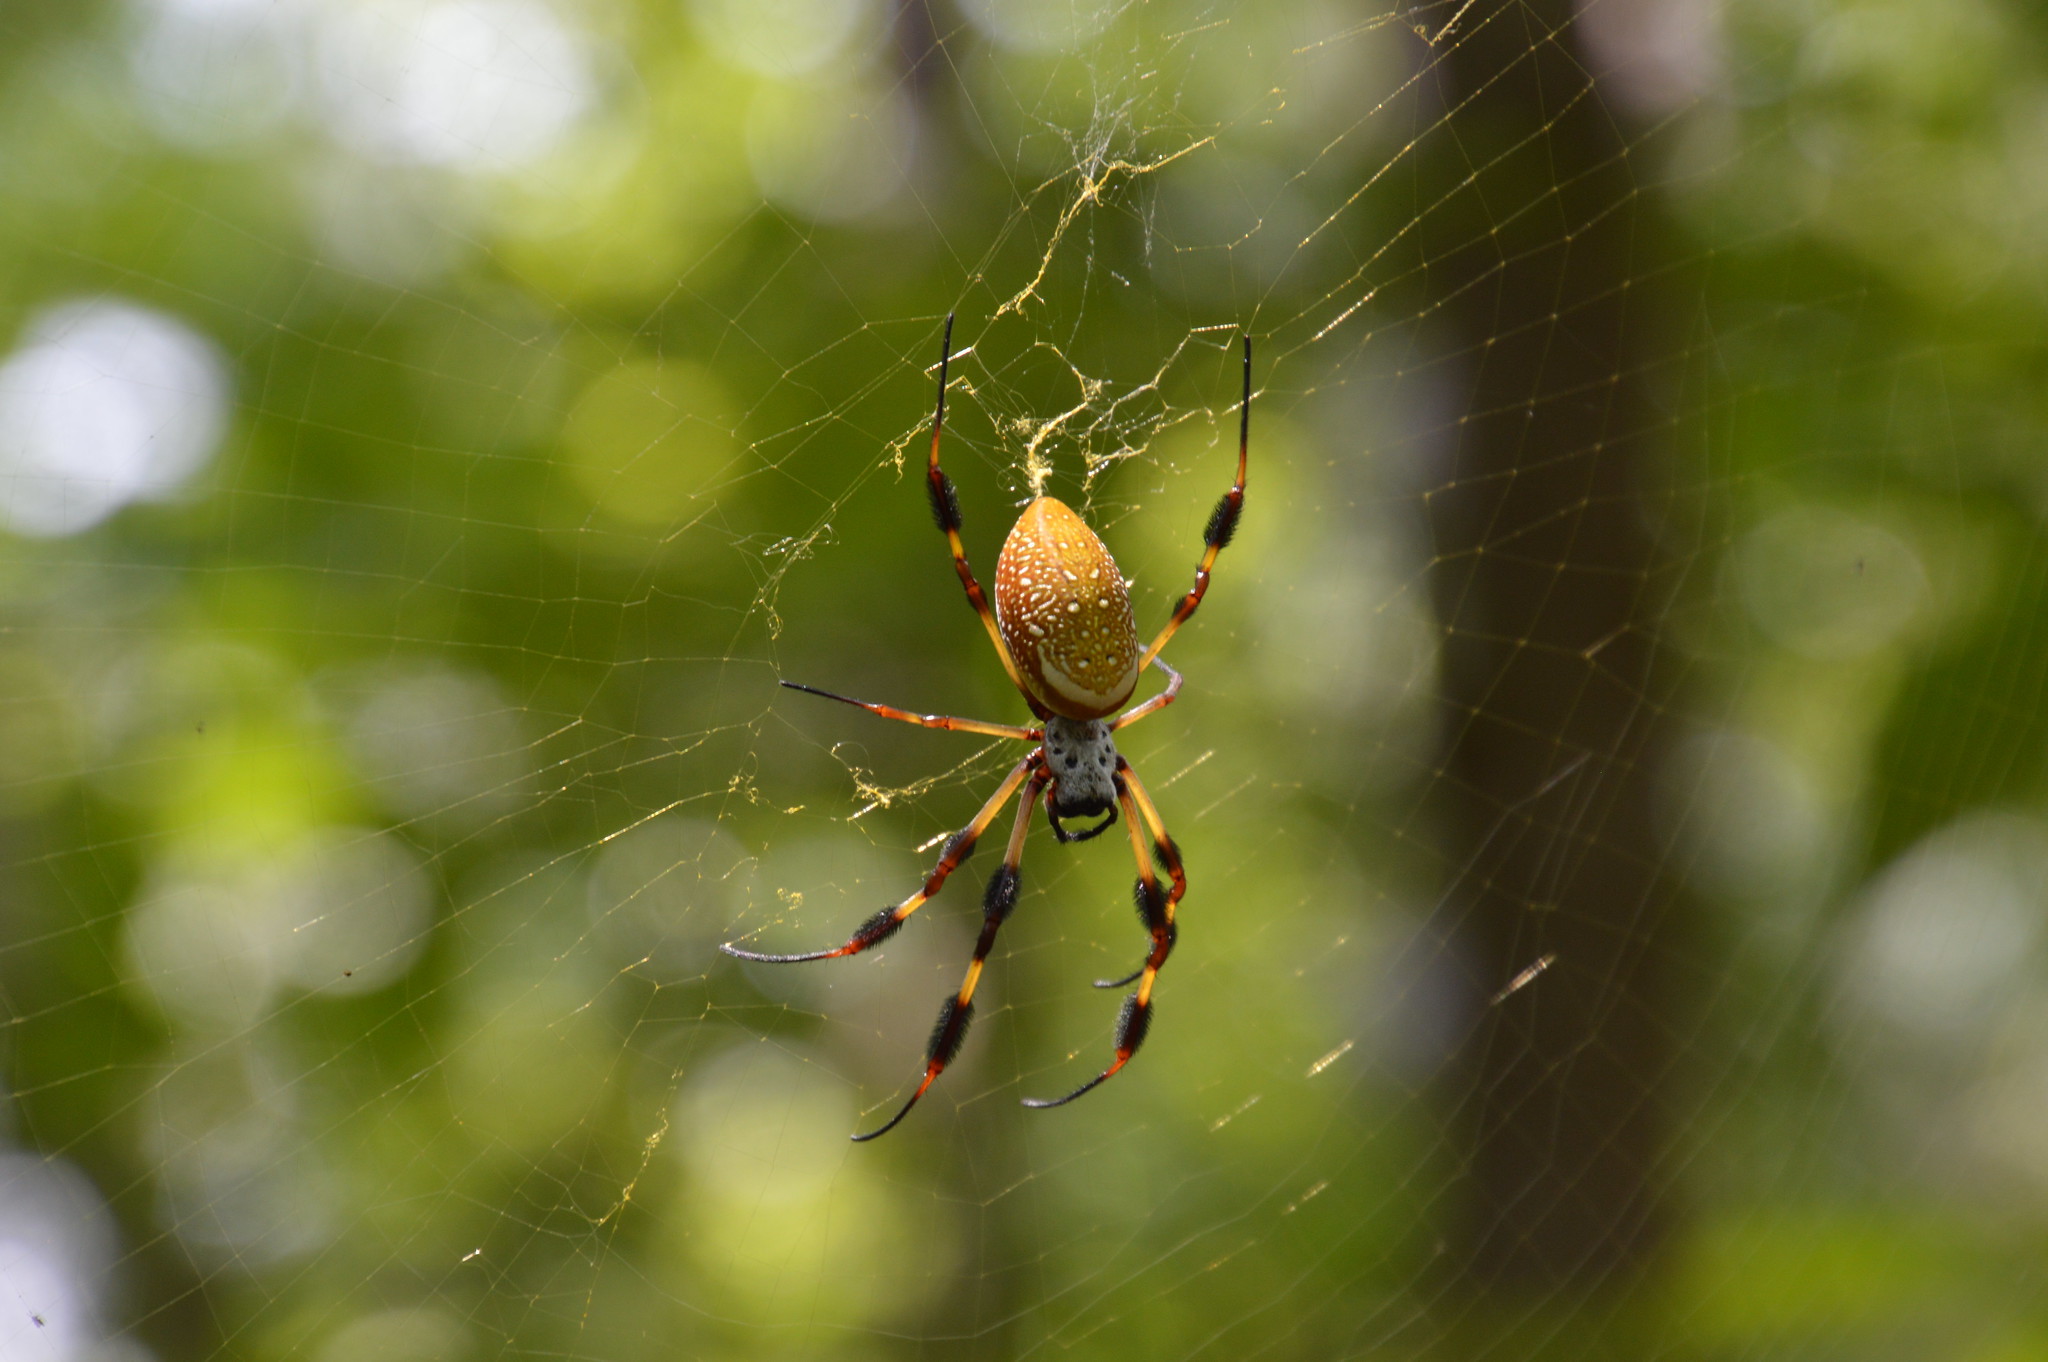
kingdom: Animalia
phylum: Arthropoda
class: Arachnida
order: Araneae
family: Araneidae
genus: Trichonephila
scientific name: Trichonephila clavipes
